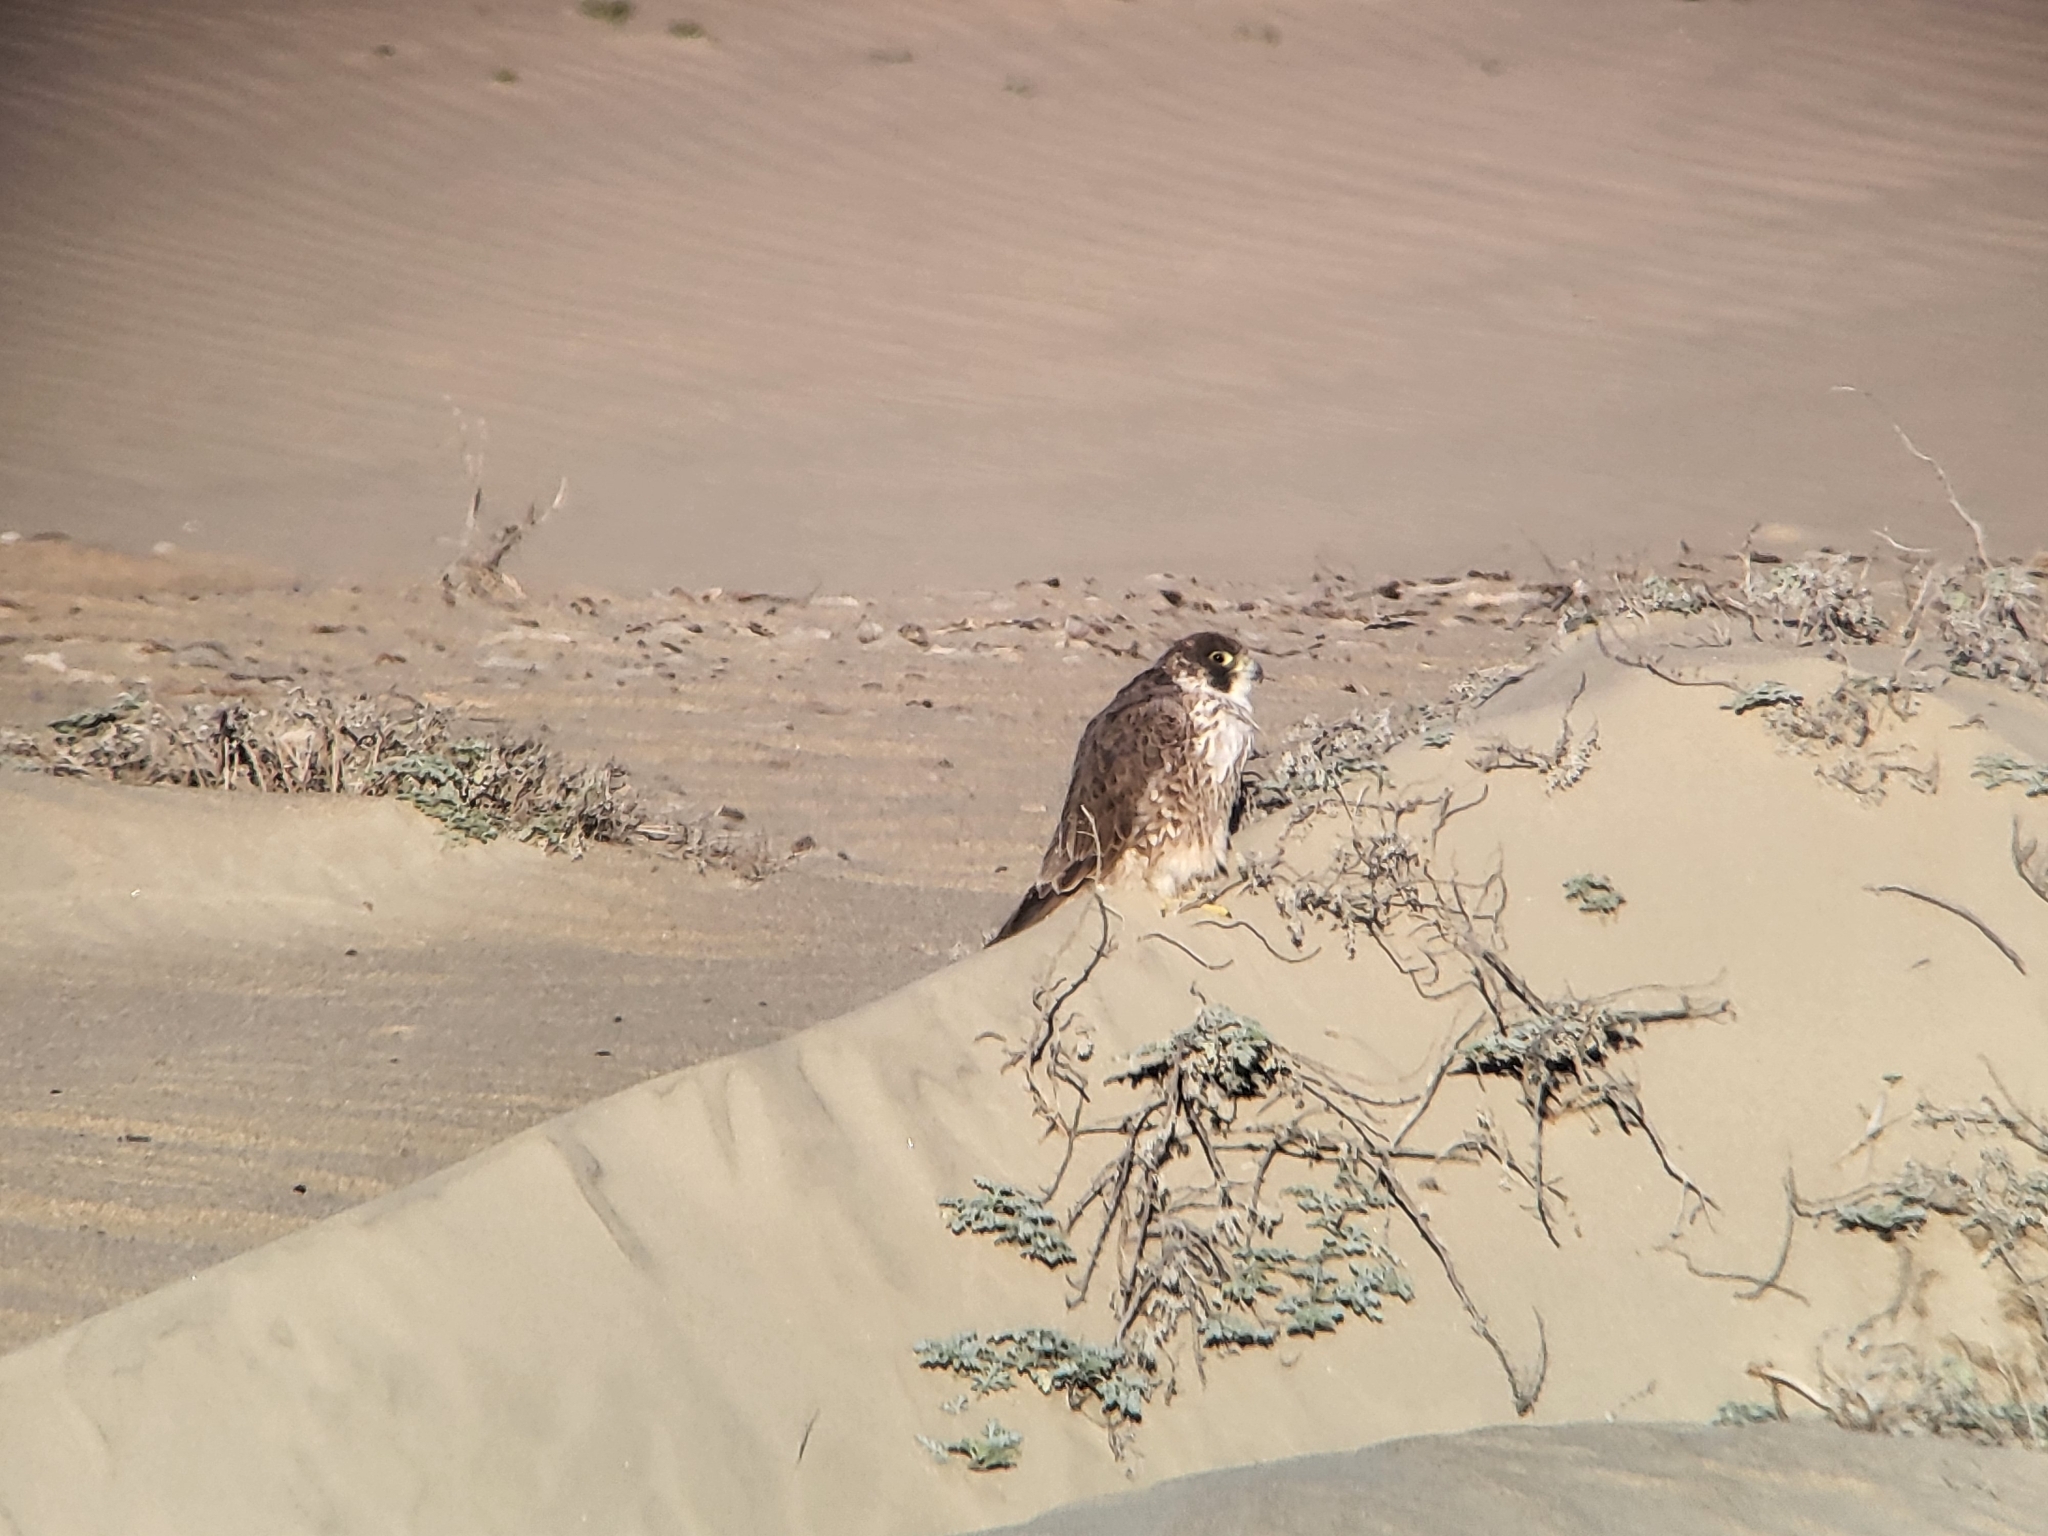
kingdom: Animalia
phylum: Chordata
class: Aves
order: Falconiformes
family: Falconidae
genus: Falco
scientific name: Falco peregrinus
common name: Peregrine falcon
